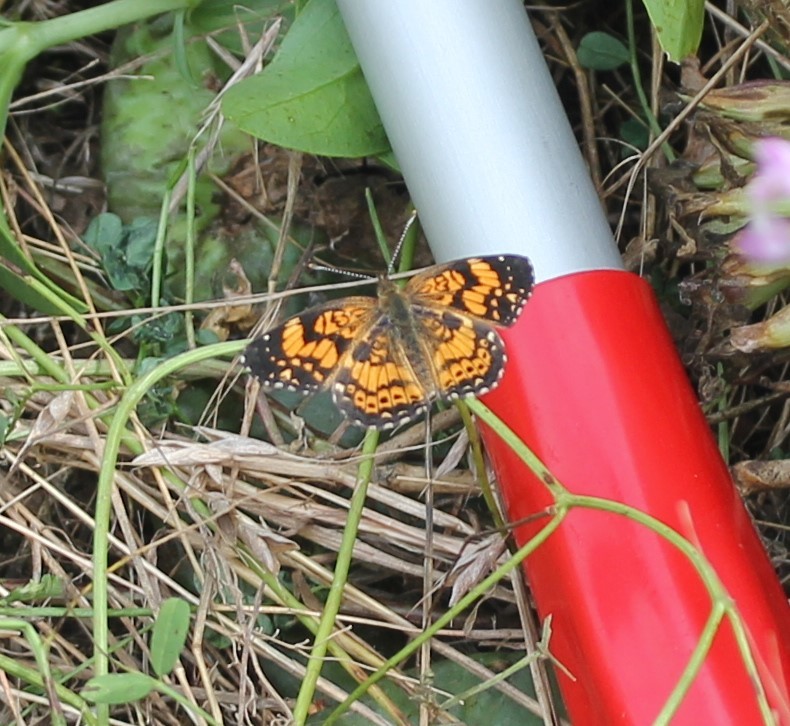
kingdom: Animalia
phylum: Arthropoda
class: Insecta
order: Lepidoptera
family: Nymphalidae
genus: Chlosyne
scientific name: Chlosyne gorgone
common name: Gorgone checkerspot
